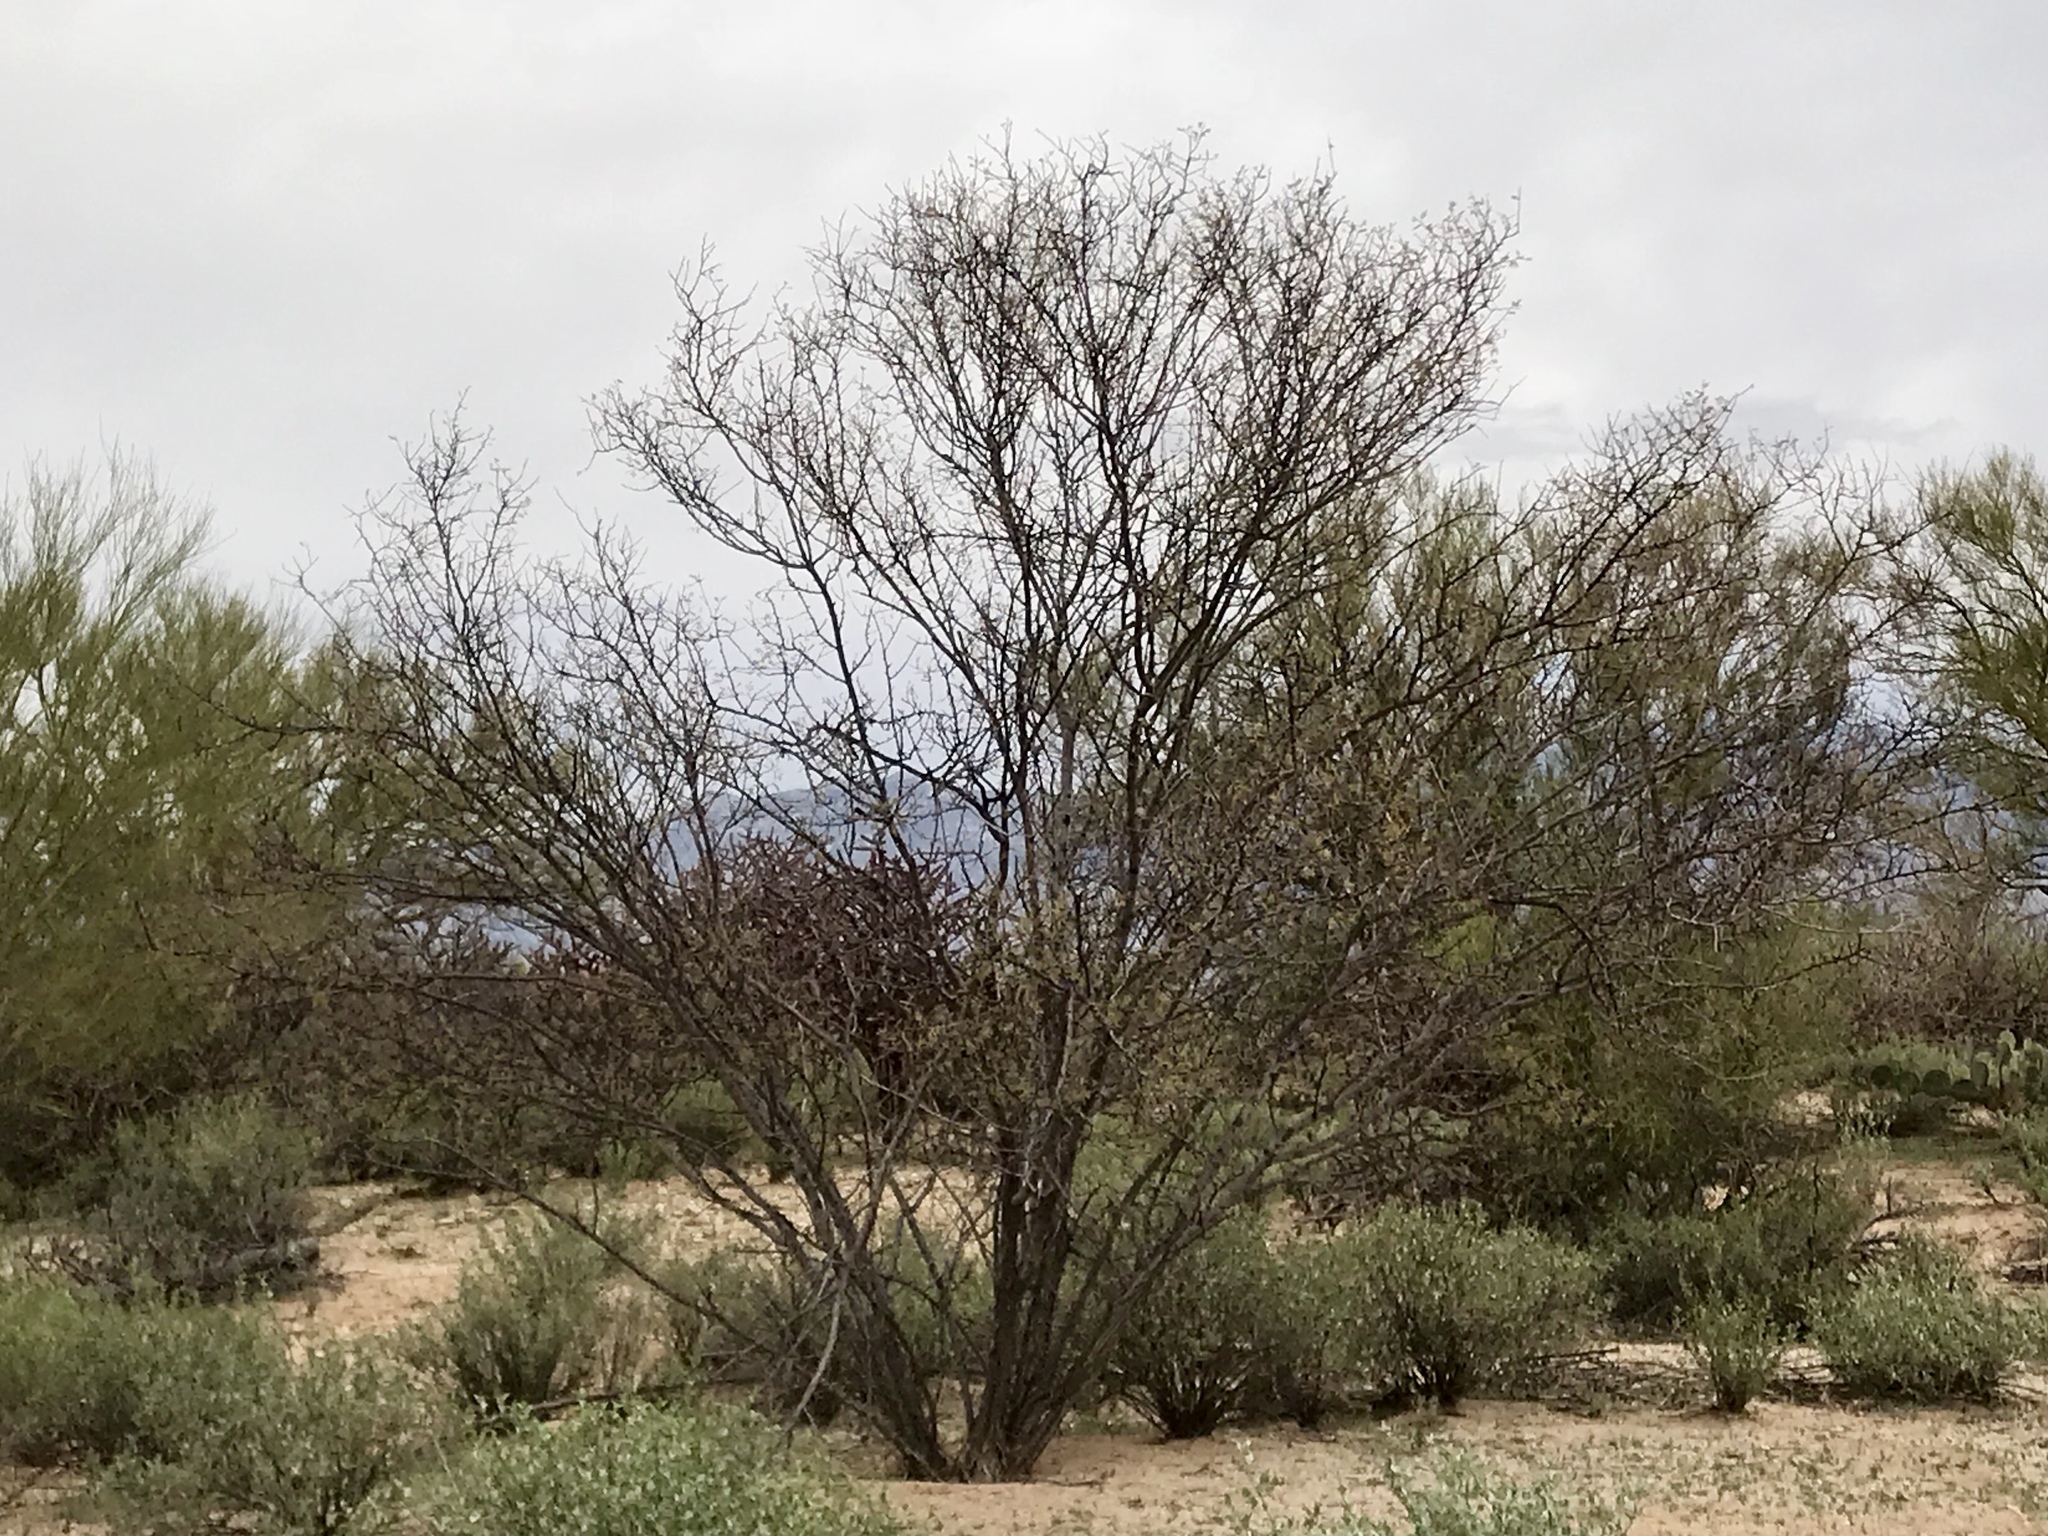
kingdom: Plantae
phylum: Tracheophyta
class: Magnoliopsida
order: Fabales
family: Fabaceae
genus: Olneya
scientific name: Olneya tesota
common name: Desert ironwood
